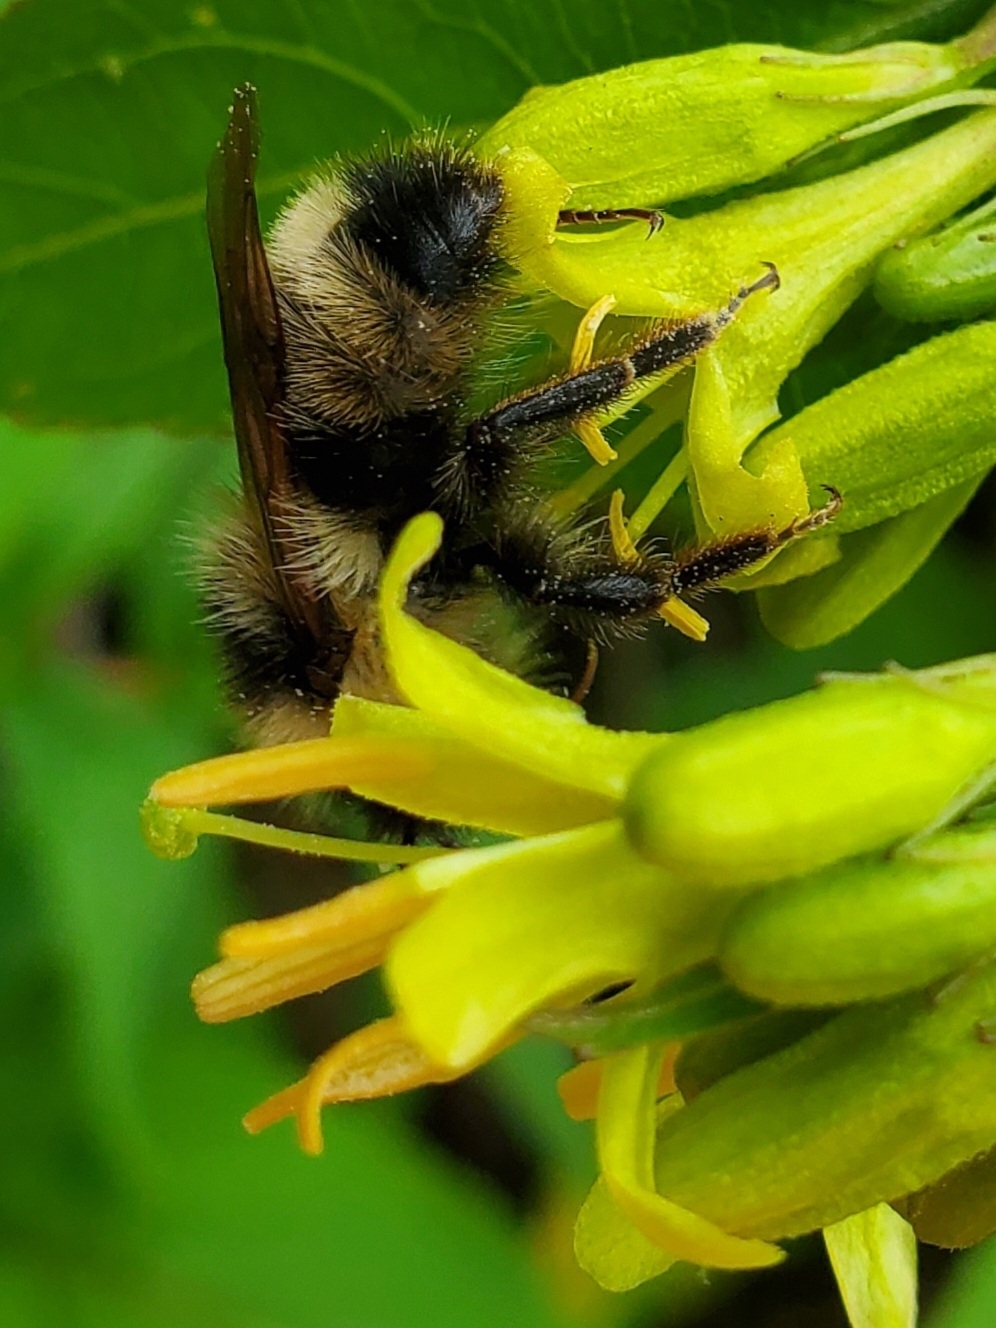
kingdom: Animalia
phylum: Arthropoda
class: Insecta
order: Hymenoptera
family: Apidae
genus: Bombus
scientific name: Bombus flavidus
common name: Fernald cuckoo bumble bee
